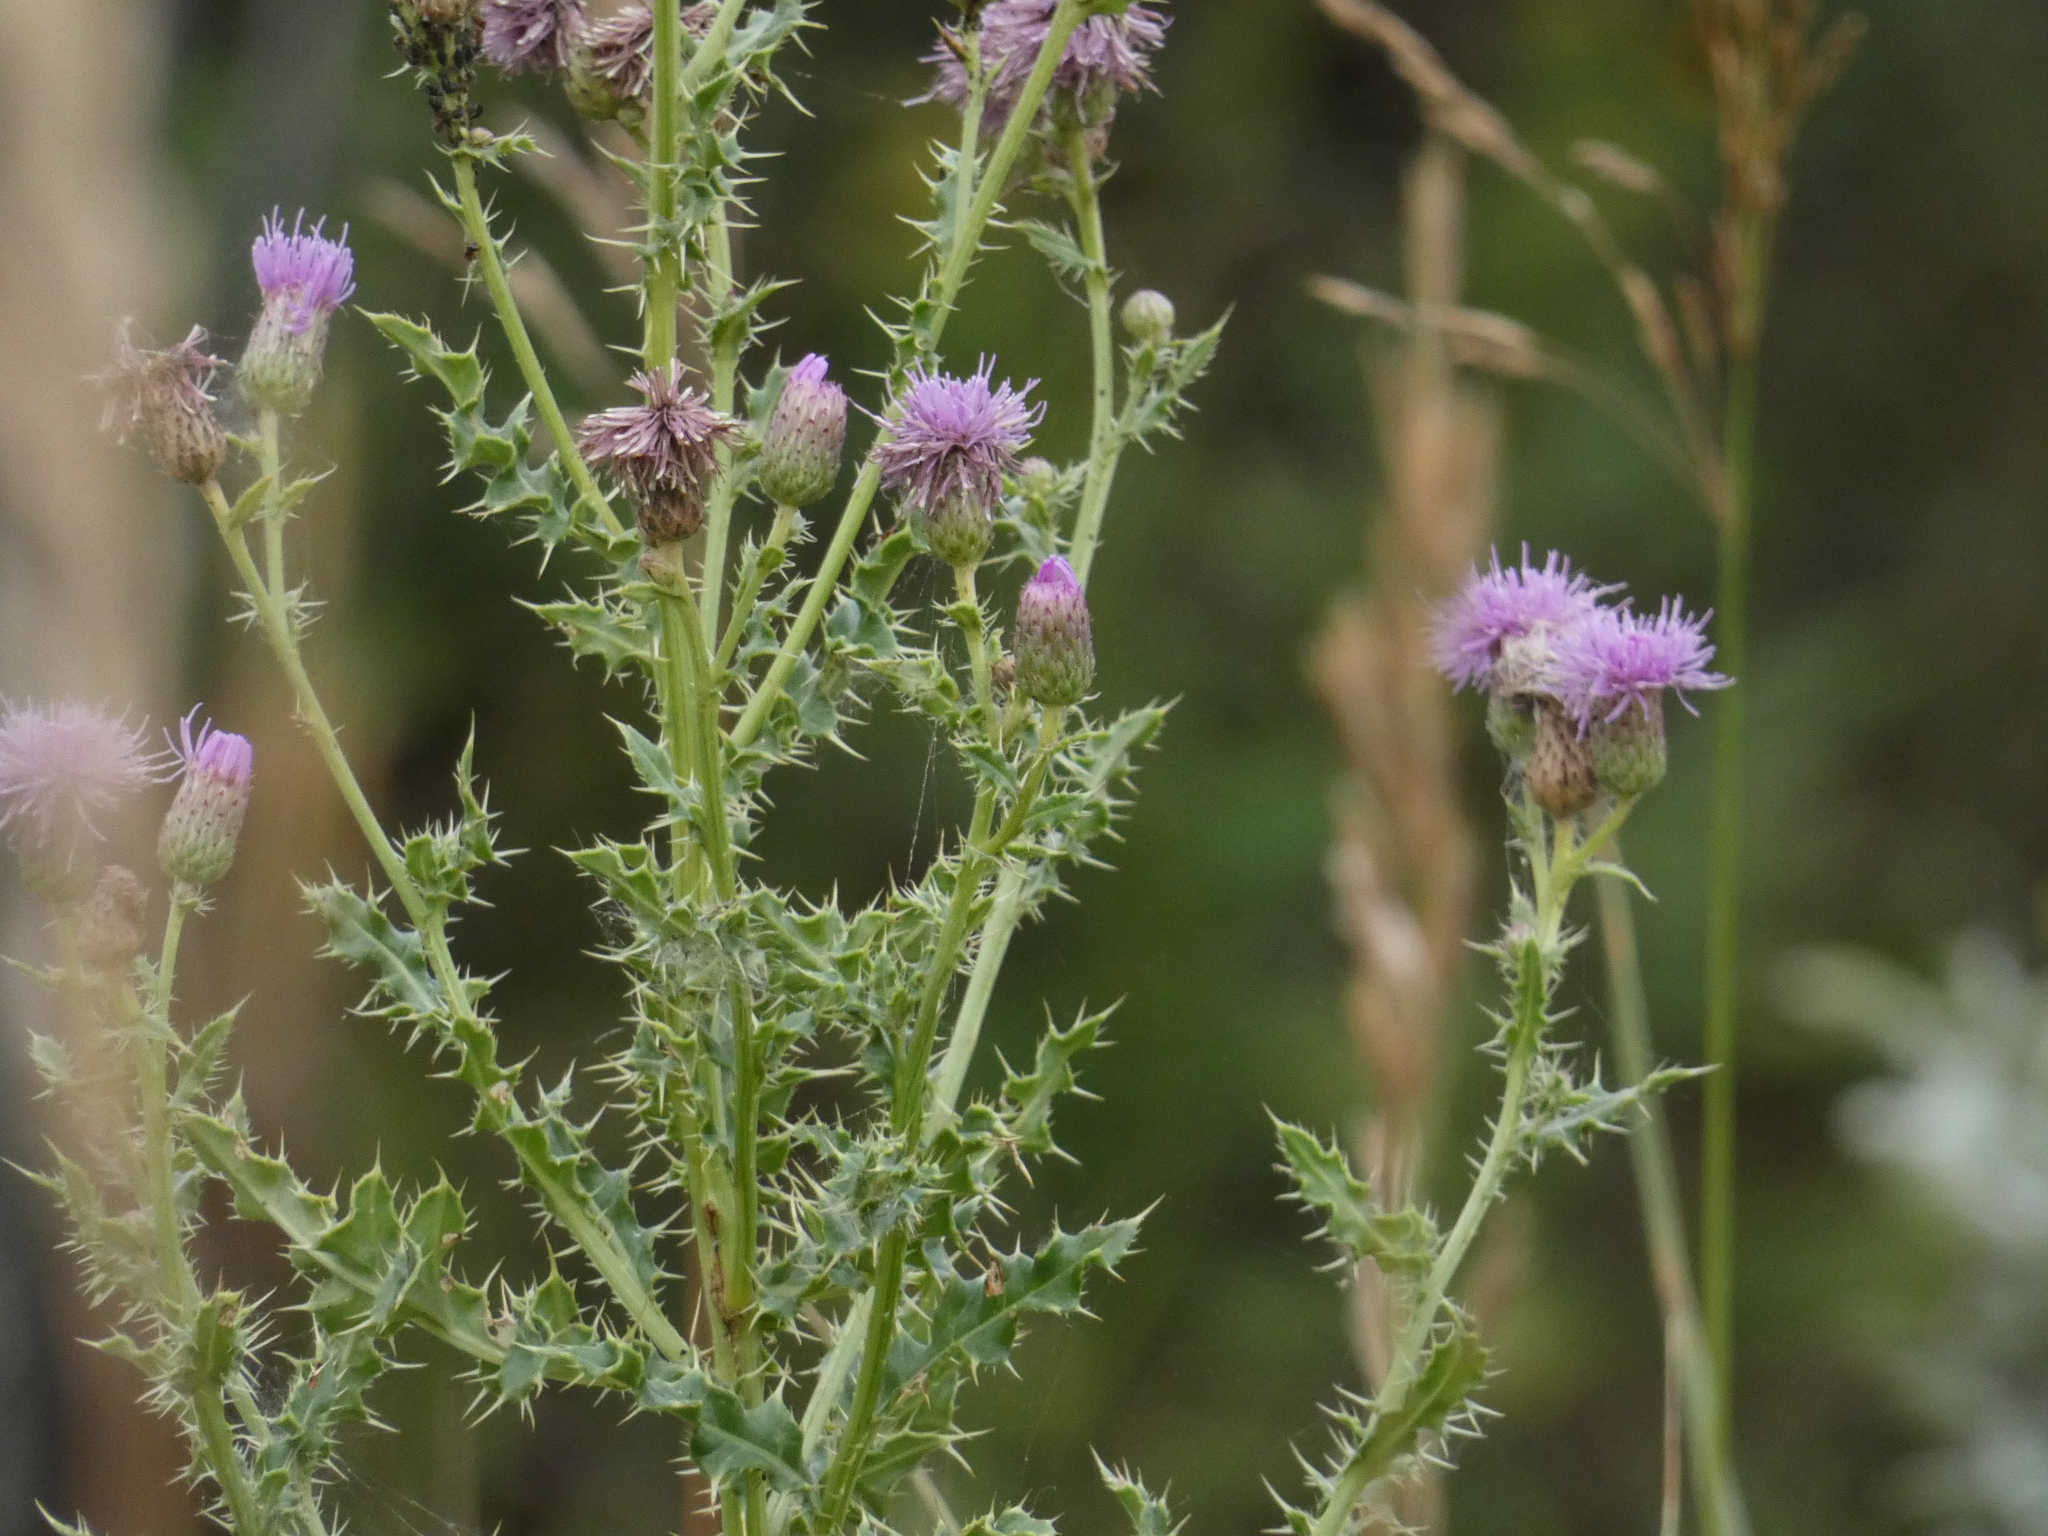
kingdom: Plantae
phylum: Tracheophyta
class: Magnoliopsida
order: Asterales
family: Asteraceae
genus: Cirsium
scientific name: Cirsium arvense
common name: Creeping thistle
